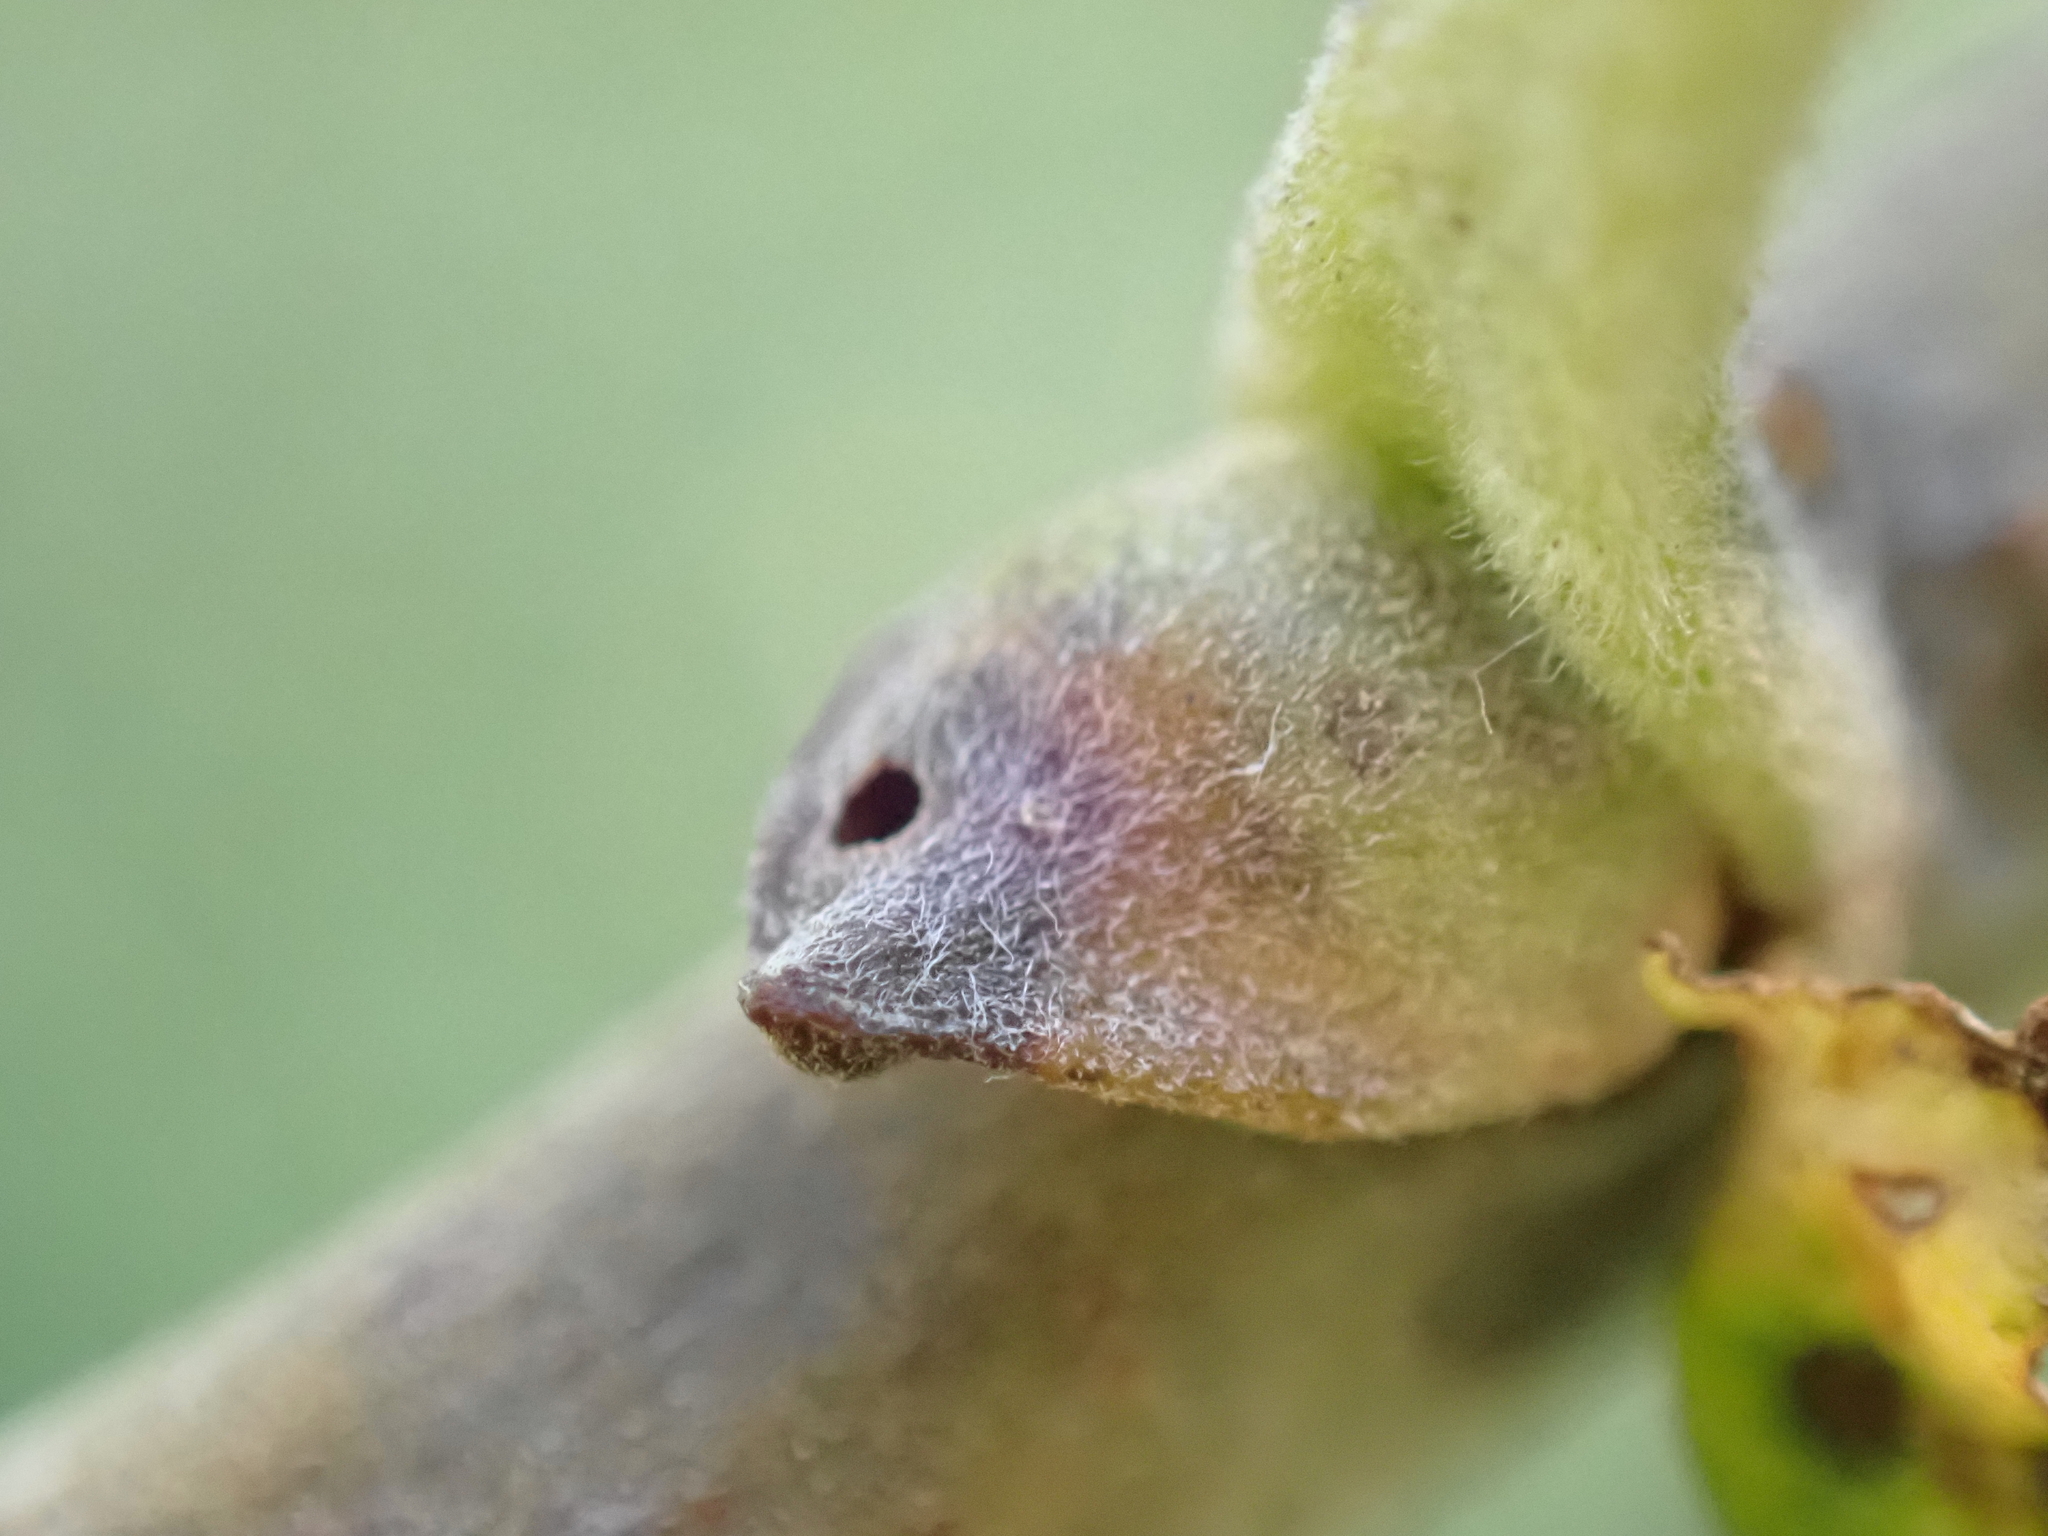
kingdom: Animalia
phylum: Arthropoda
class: Insecta
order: Hymenoptera
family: Tenthredinidae
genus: Euura
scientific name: Euura mucronata
